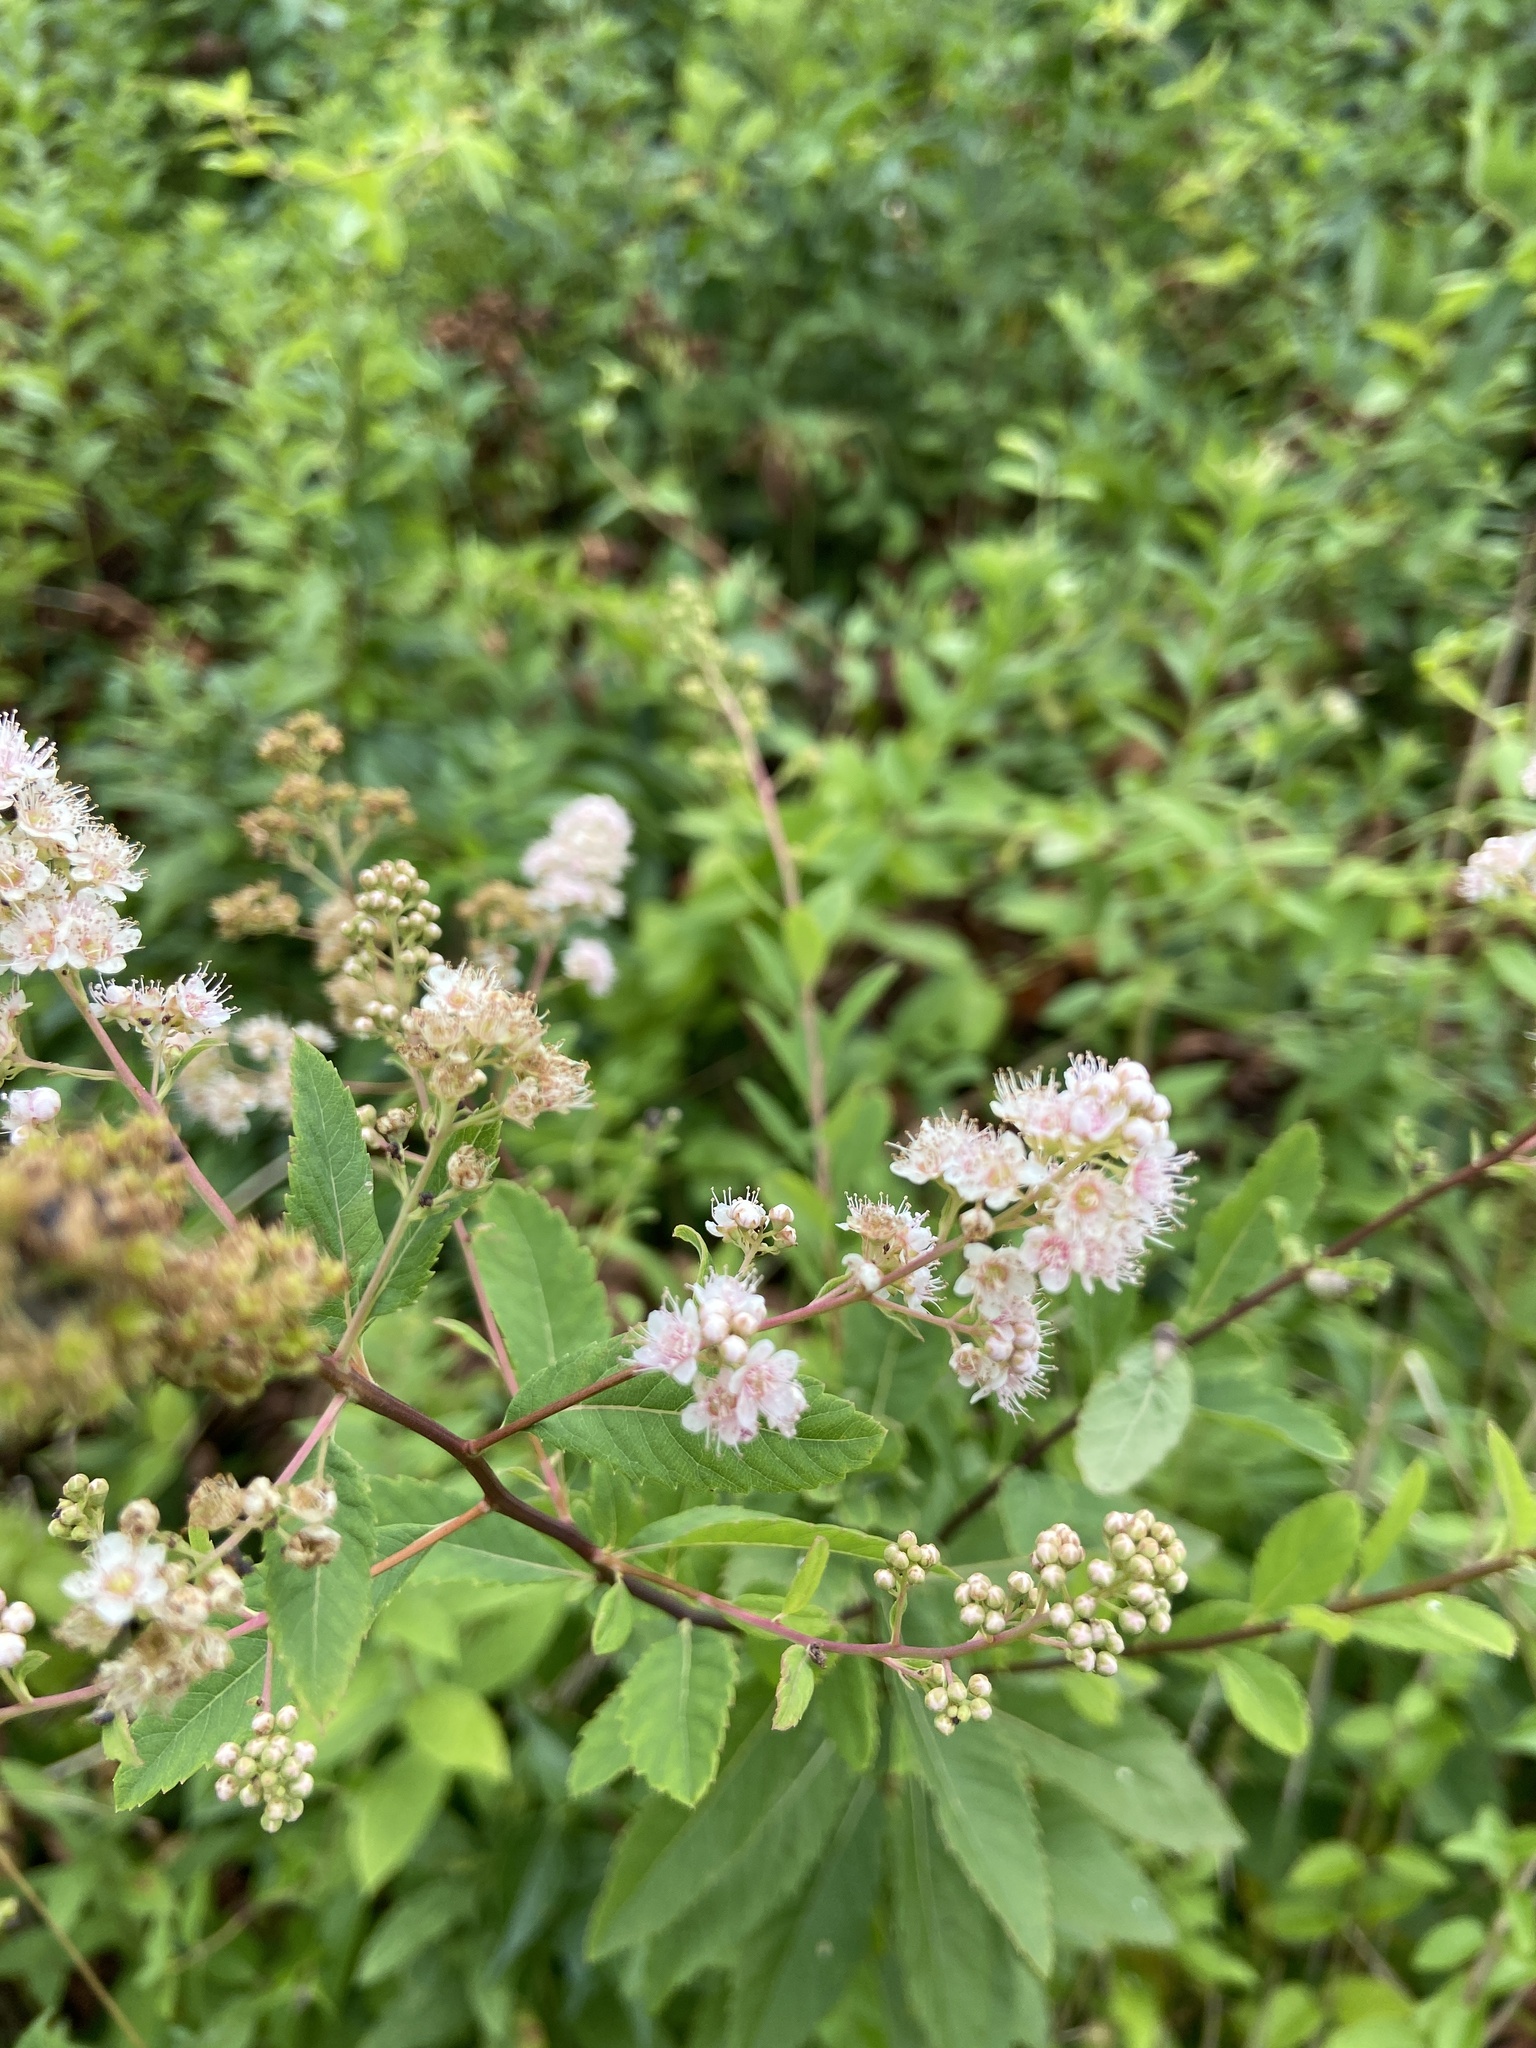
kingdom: Plantae
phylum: Tracheophyta
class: Magnoliopsida
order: Rosales
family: Rosaceae
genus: Spiraea
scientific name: Spiraea alba
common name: Pale bridewort
